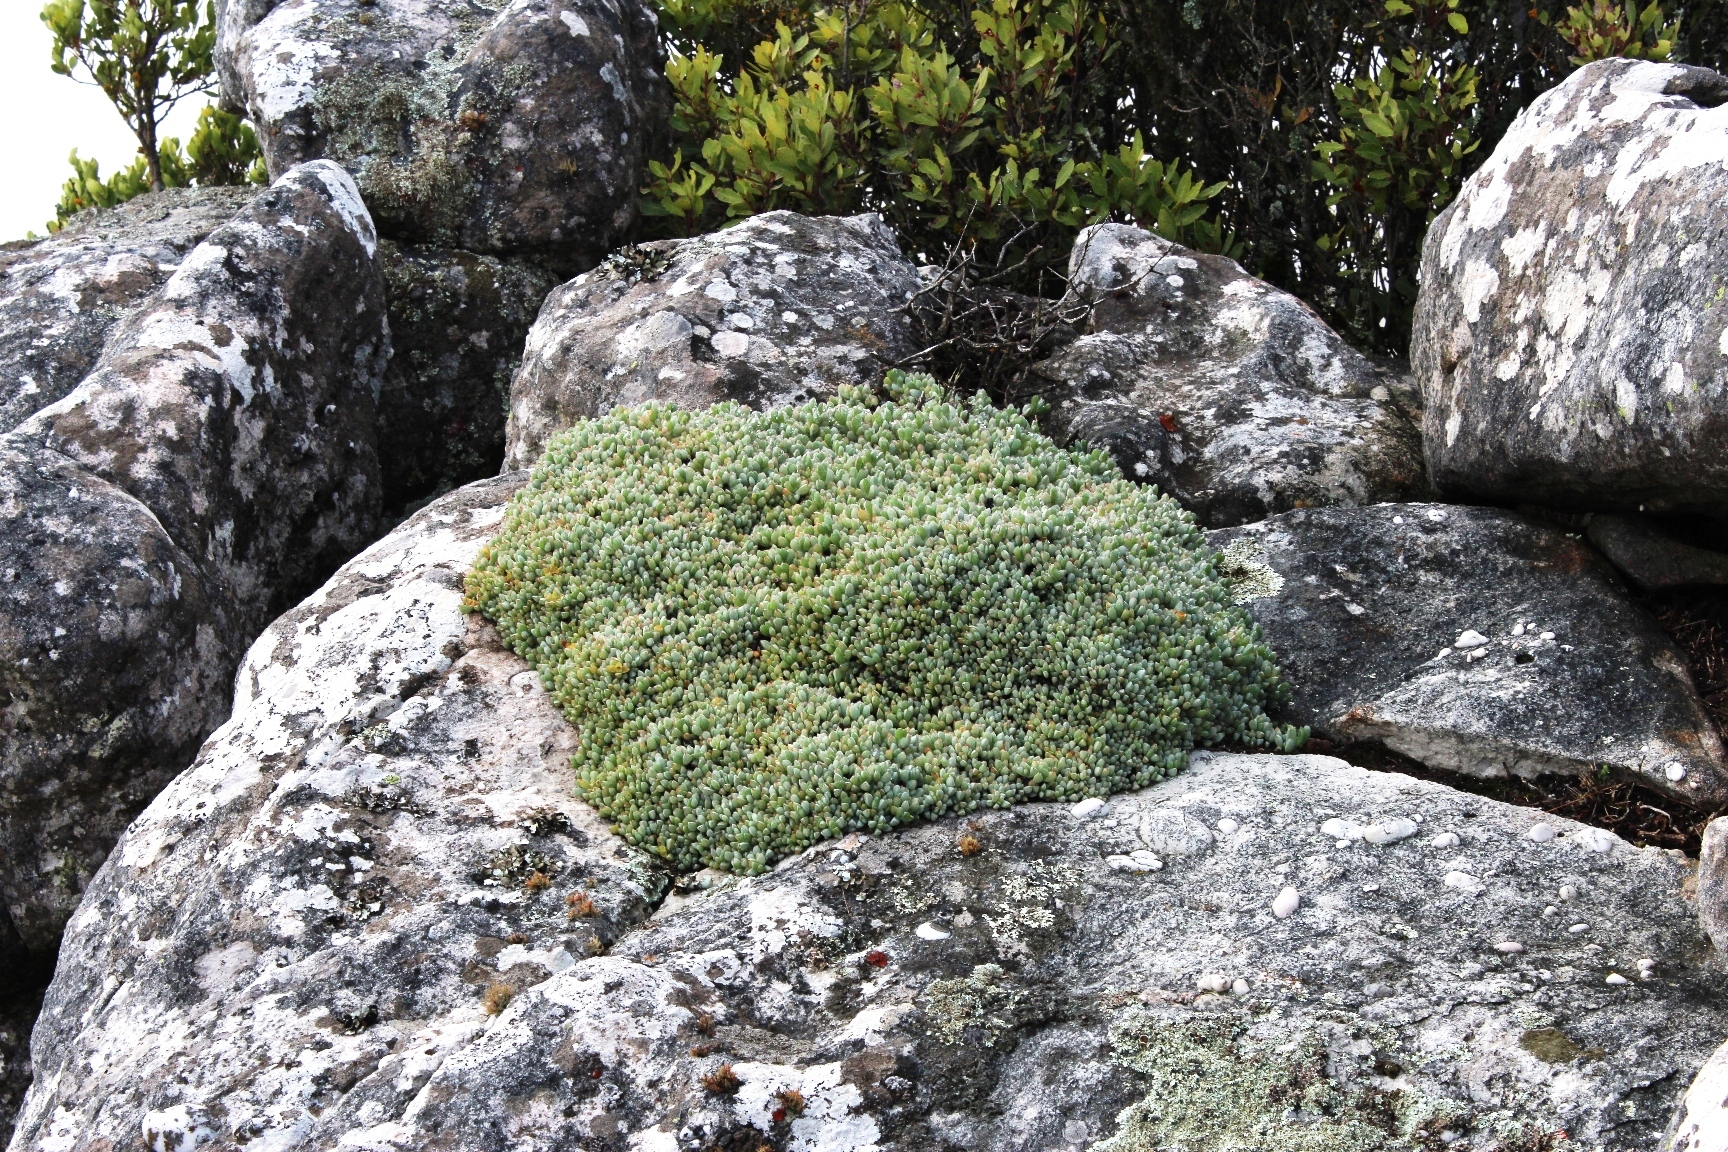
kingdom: Plantae
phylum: Tracheophyta
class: Magnoliopsida
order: Caryophyllales
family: Aizoaceae
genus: Oscularia
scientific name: Oscularia caulescens
